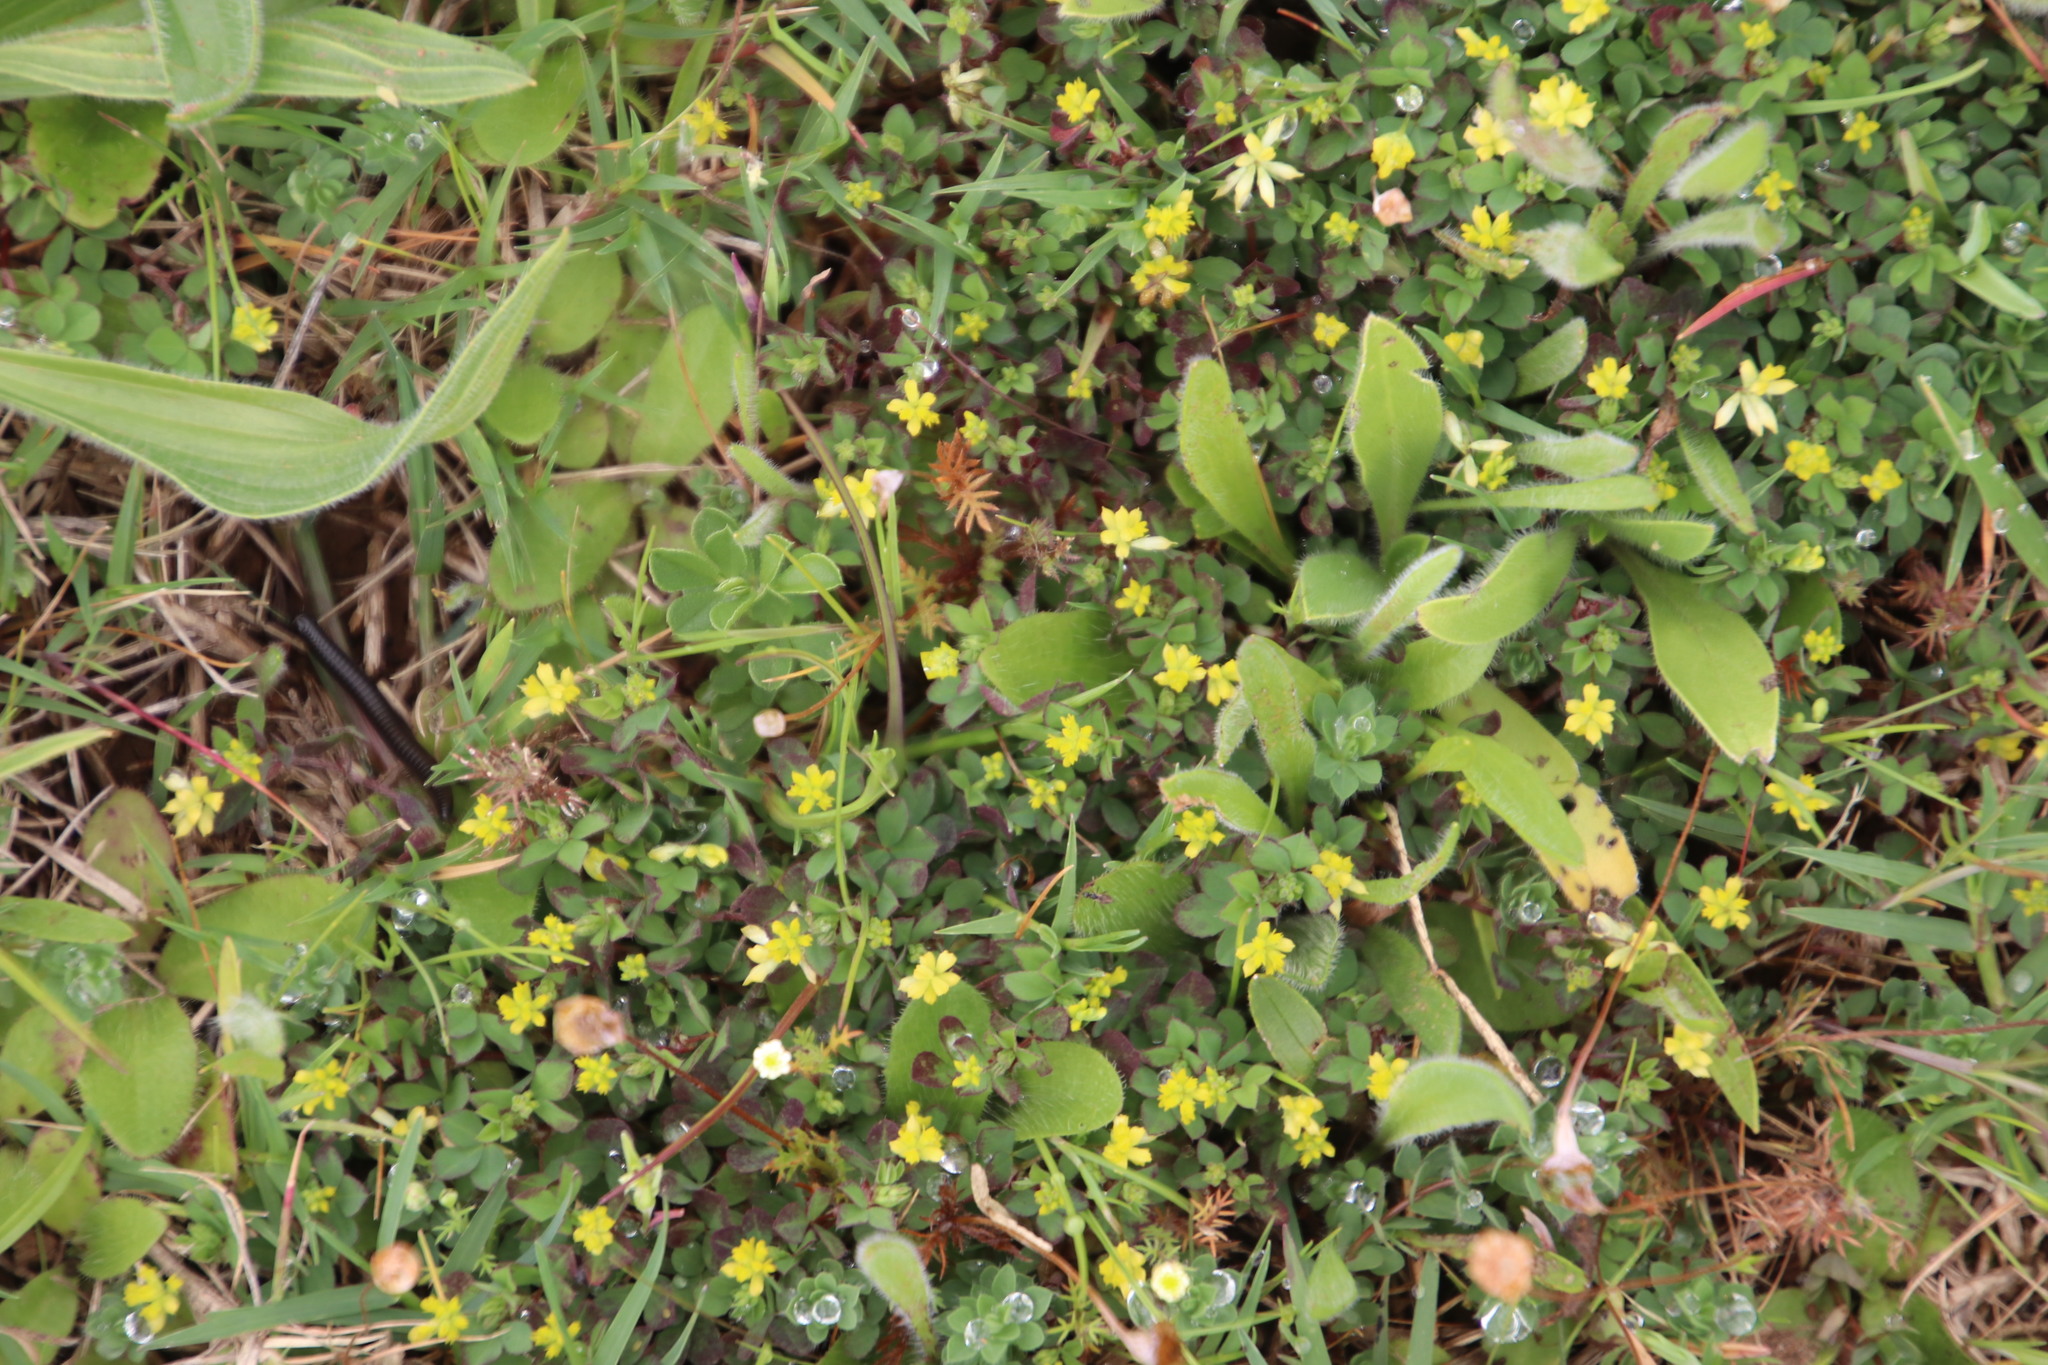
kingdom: Plantae
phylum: Tracheophyta
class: Magnoliopsida
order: Fabales
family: Fabaceae
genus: Trifolium
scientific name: Trifolium dubium
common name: Suckling clover
